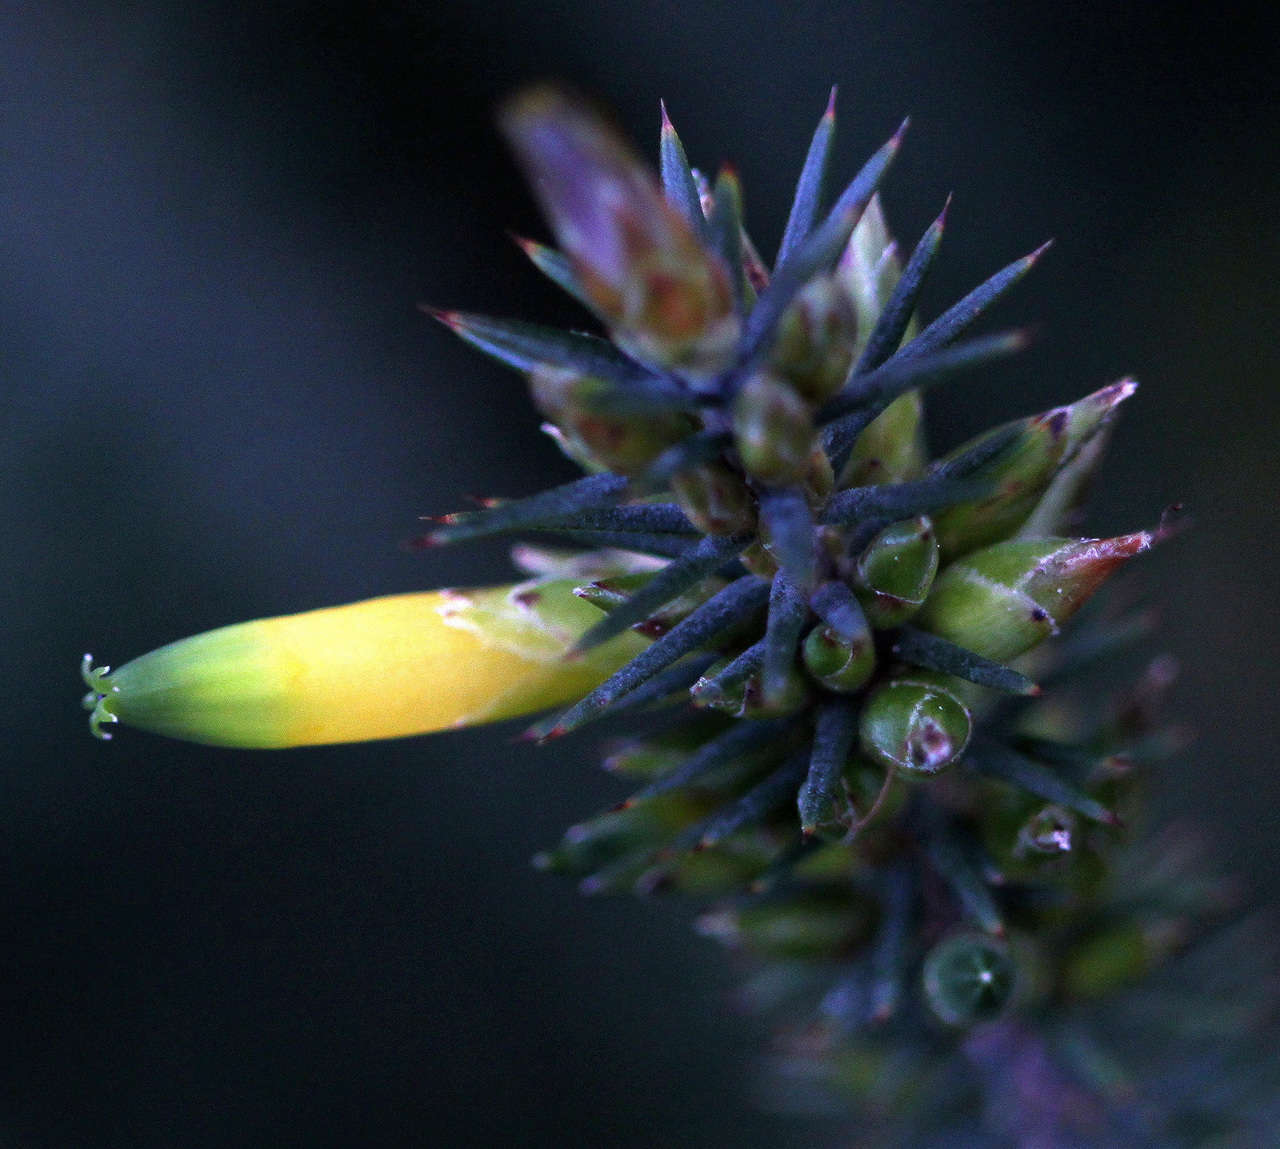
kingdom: Plantae
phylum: Tracheophyta
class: Magnoliopsida
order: Ericales
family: Ericaceae
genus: Stenanthera
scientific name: Stenanthera pinifolia
